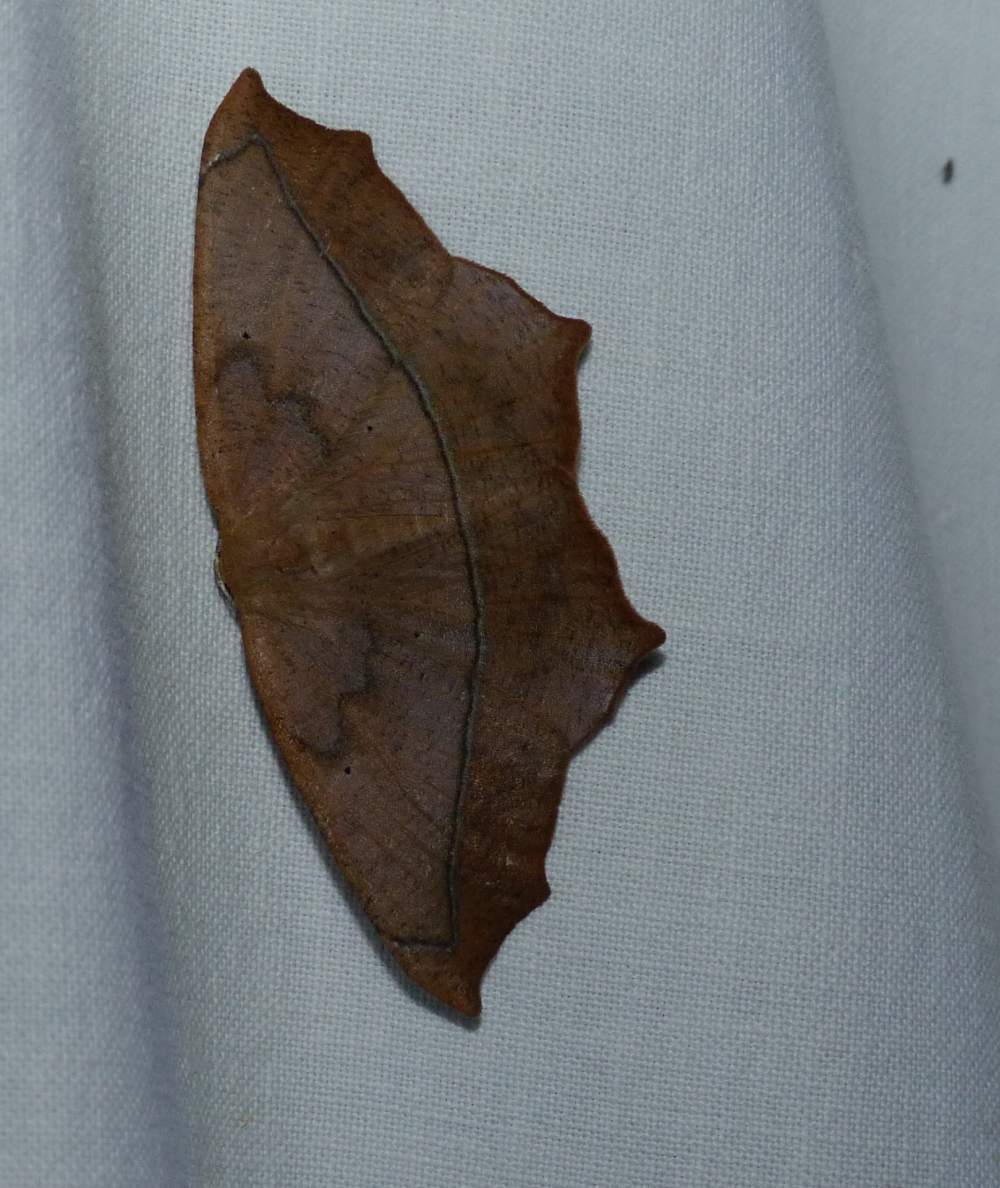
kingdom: Animalia
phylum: Arthropoda
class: Insecta
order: Lepidoptera
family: Geometridae
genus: Prochoerodes
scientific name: Prochoerodes lineola
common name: Large maple spanworm
